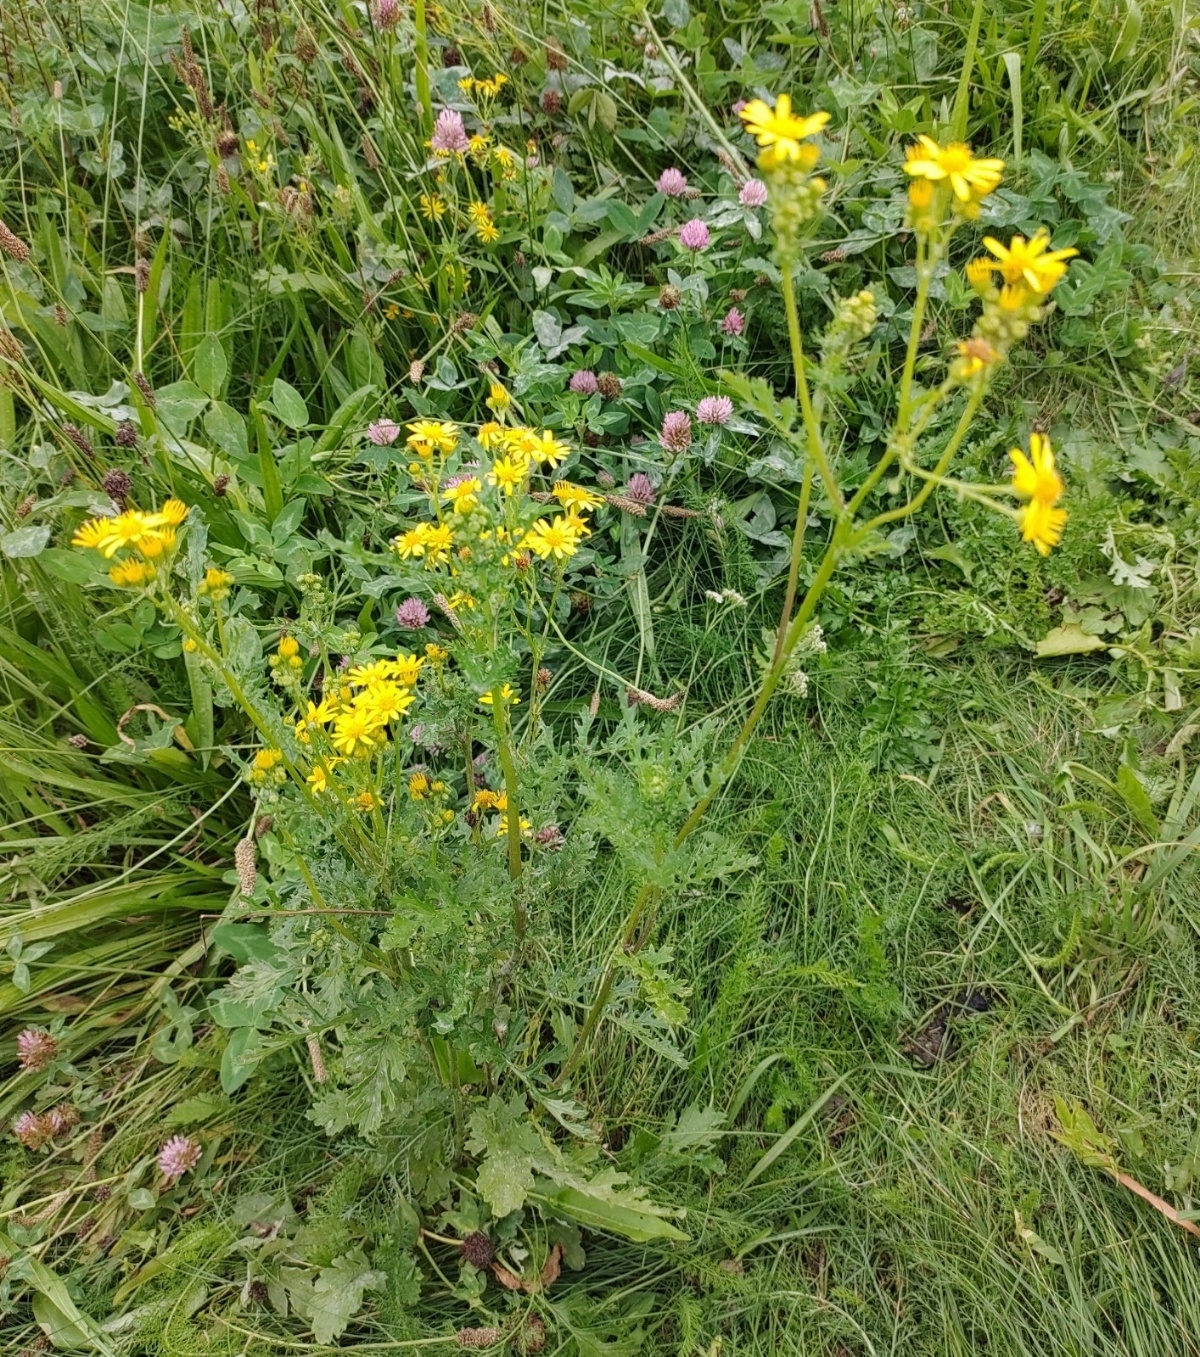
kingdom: Plantae
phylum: Tracheophyta
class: Magnoliopsida
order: Asterales
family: Asteraceae
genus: Jacobaea
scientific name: Jacobaea vulgaris
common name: Stinking willie
